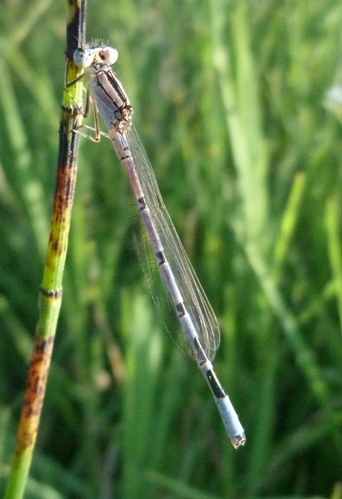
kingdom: Animalia
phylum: Arthropoda
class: Insecta
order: Odonata
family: Coenagrionidae
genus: Enallagma
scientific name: Enallagma cyathigerum
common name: Common blue damselfly
